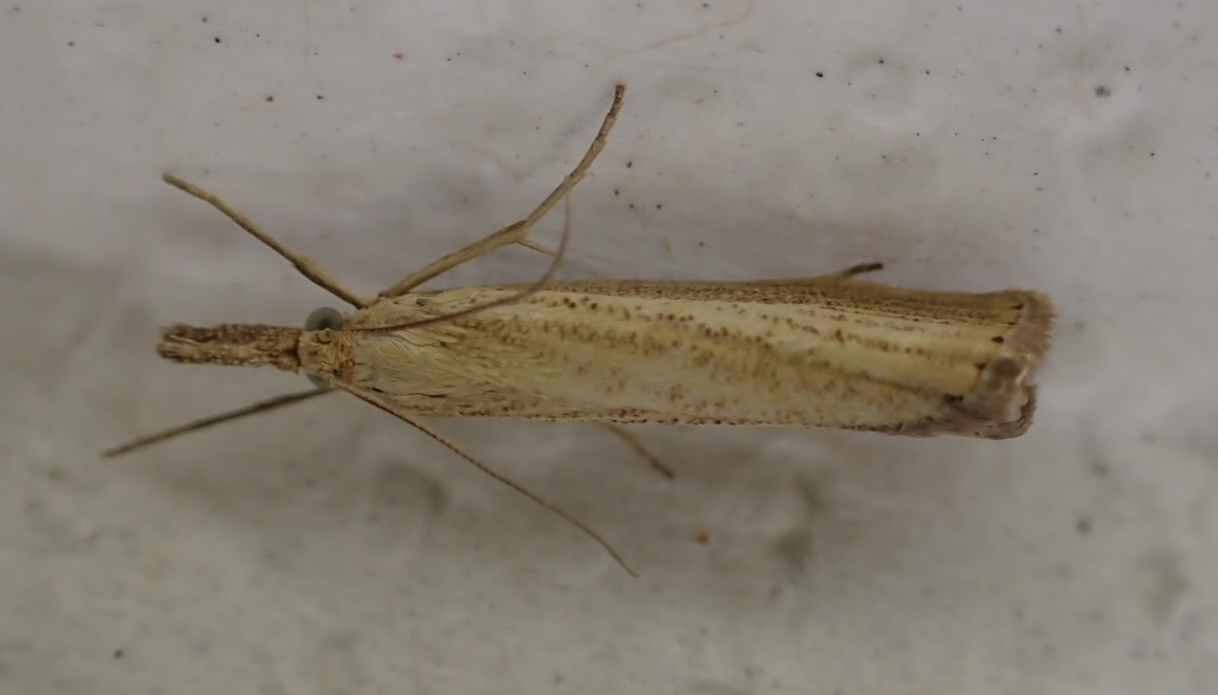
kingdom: Animalia
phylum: Arthropoda
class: Insecta
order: Lepidoptera
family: Crambidae
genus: Agriphila
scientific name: Agriphila straminella
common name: Straw grass-veneer
